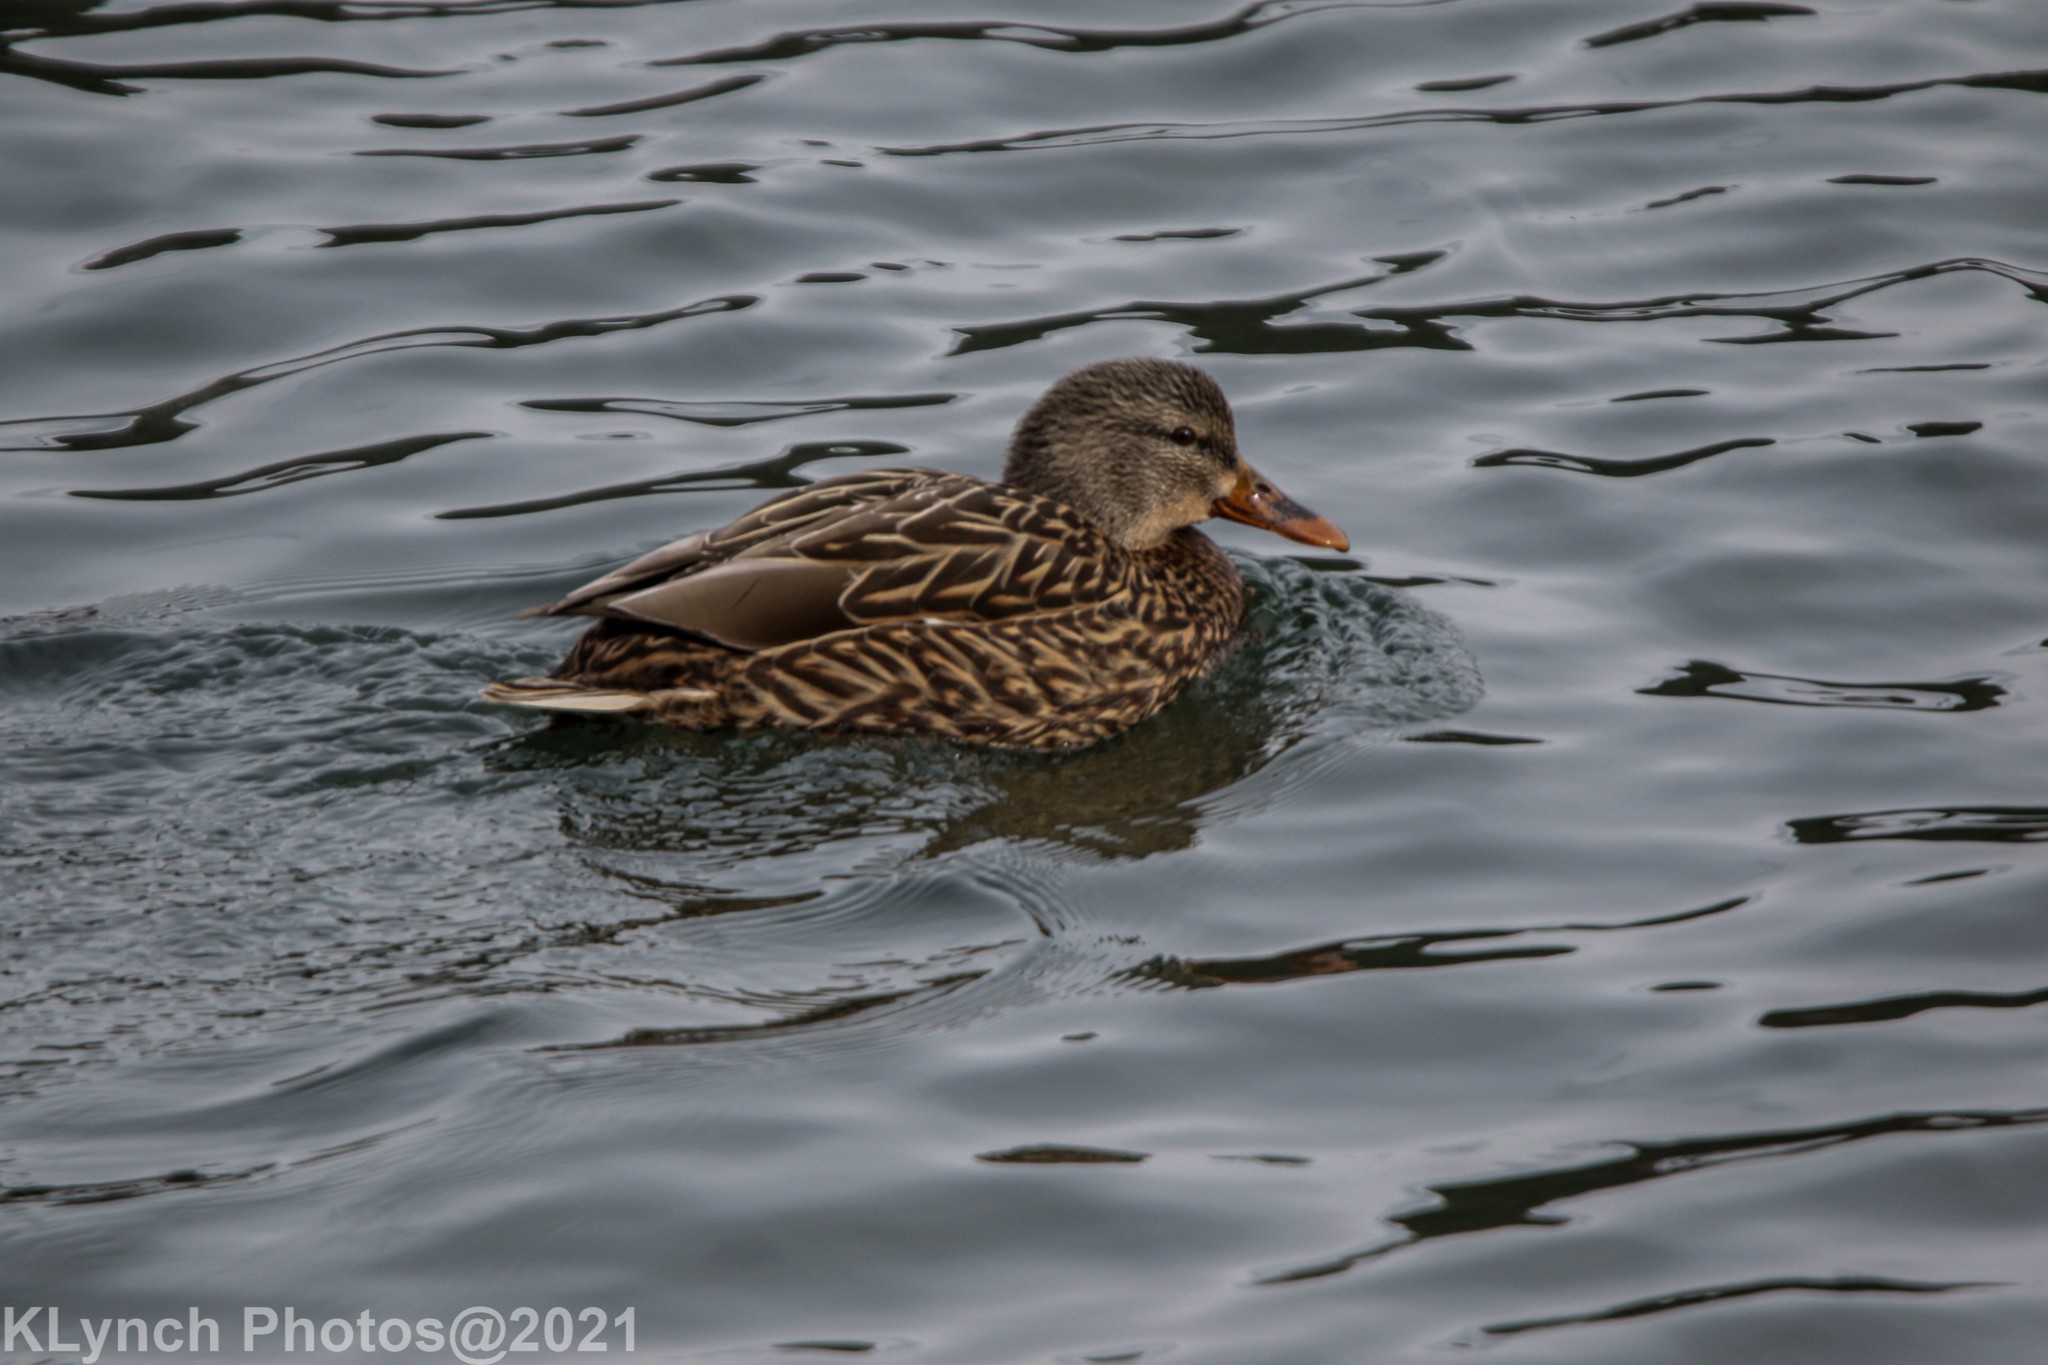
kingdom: Animalia
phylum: Chordata
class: Aves
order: Anseriformes
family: Anatidae
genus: Anas
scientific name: Anas platyrhynchos
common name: Mallard
